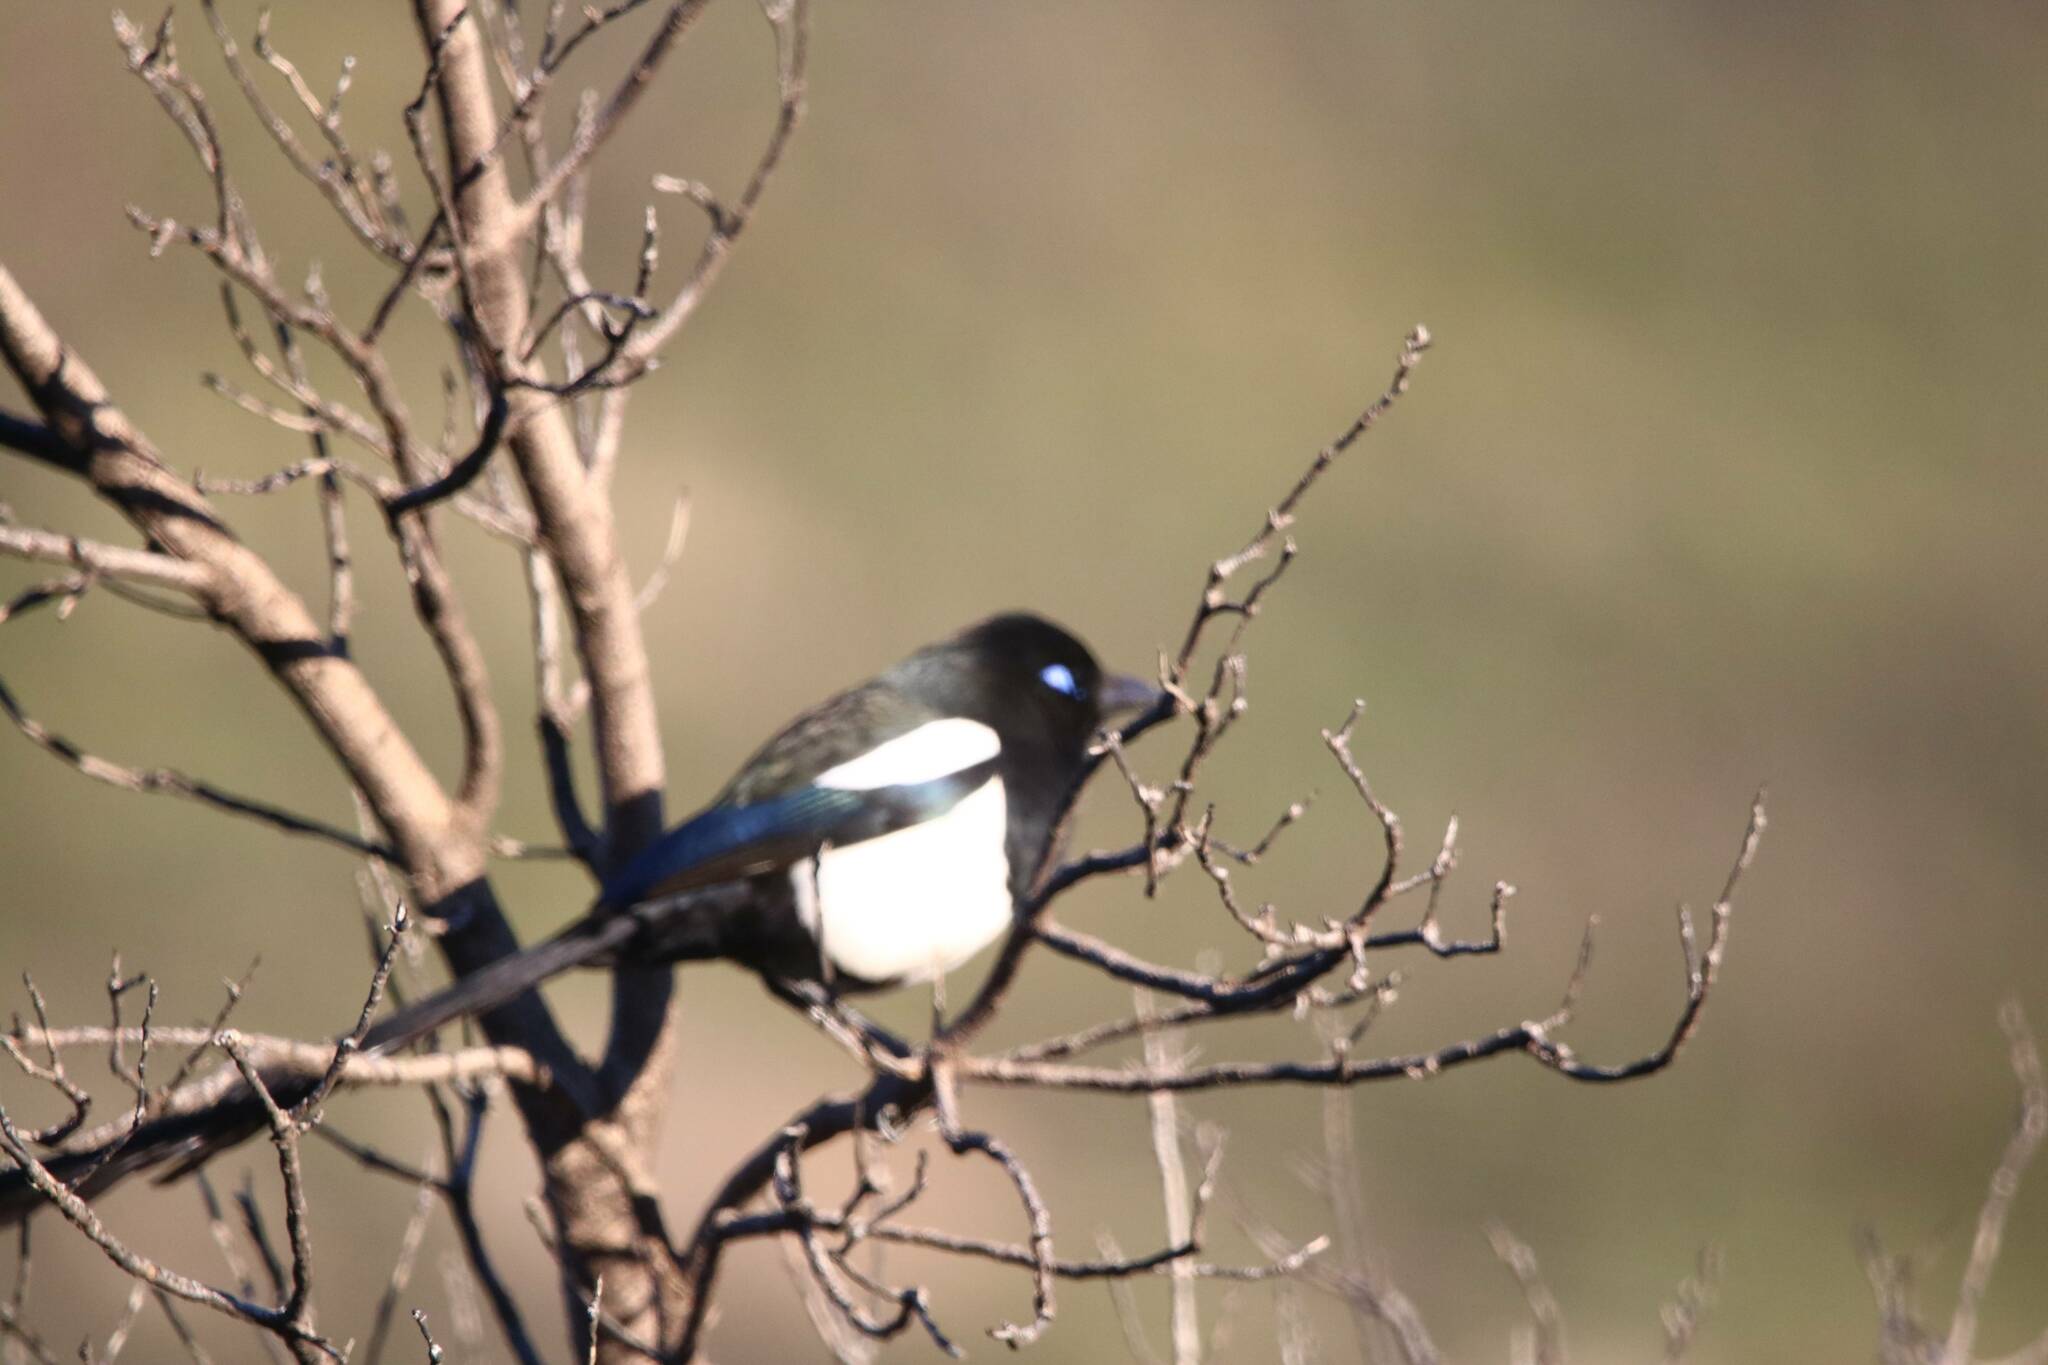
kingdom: Animalia
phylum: Chordata
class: Aves
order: Passeriformes
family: Corvidae
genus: Pica
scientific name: Pica mauritanica
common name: Maghreb magpie
